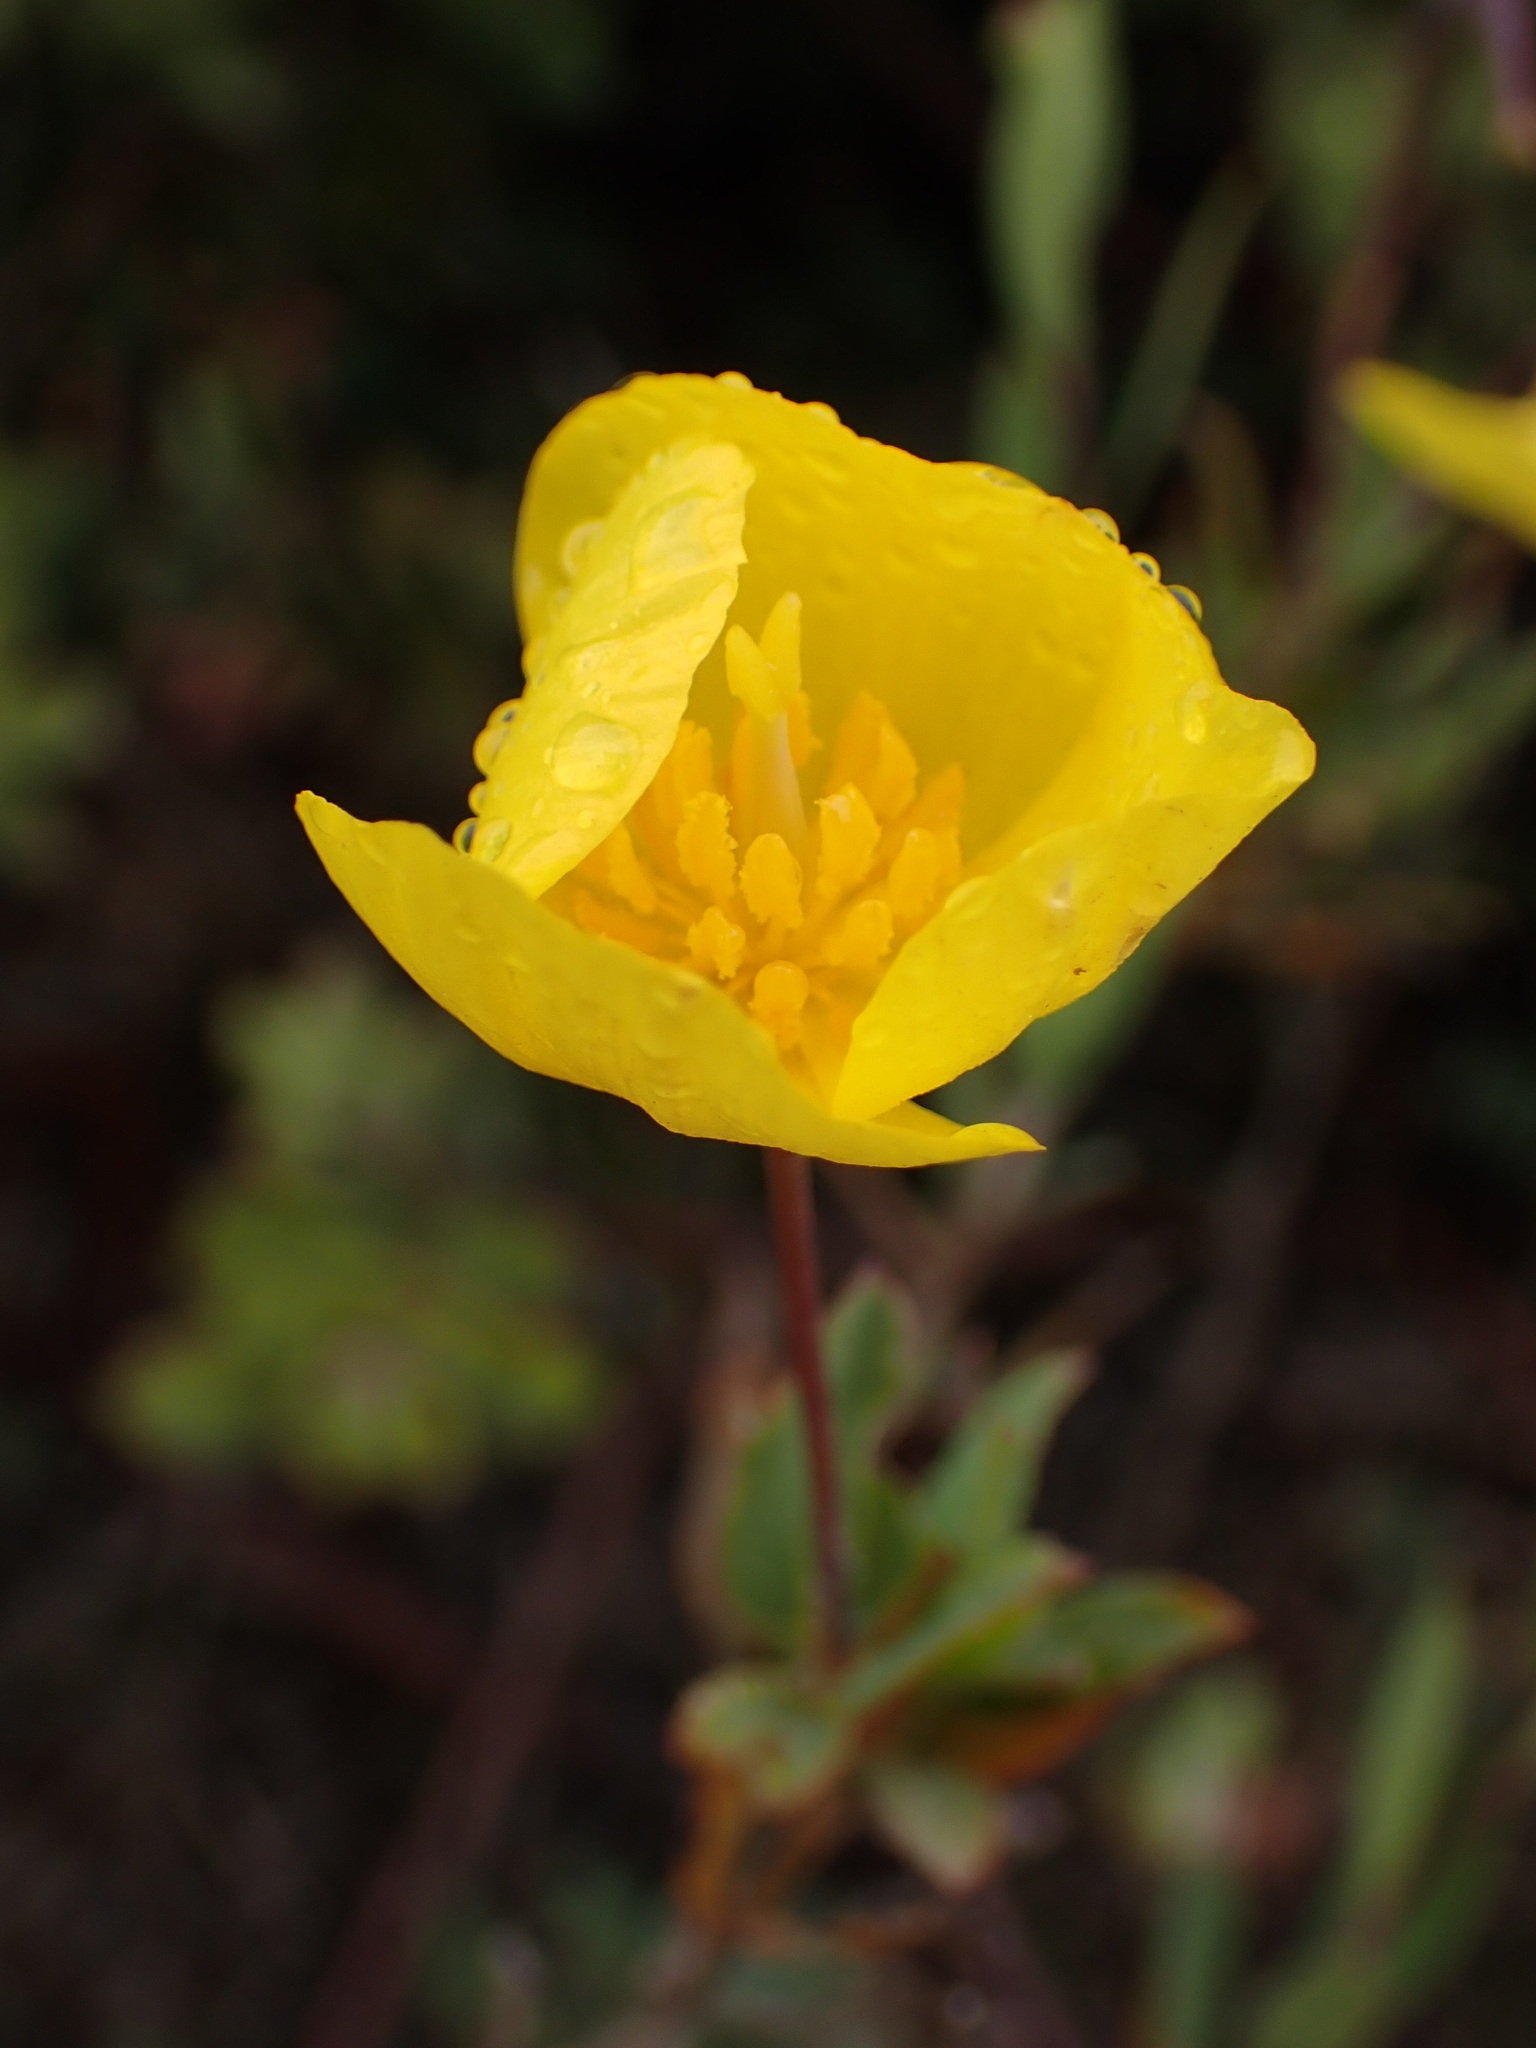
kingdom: Plantae
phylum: Tracheophyta
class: Magnoliopsida
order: Ranunculales
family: Papaveraceae
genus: Dendromecon
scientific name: Dendromecon rigida
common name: Tree poppy
